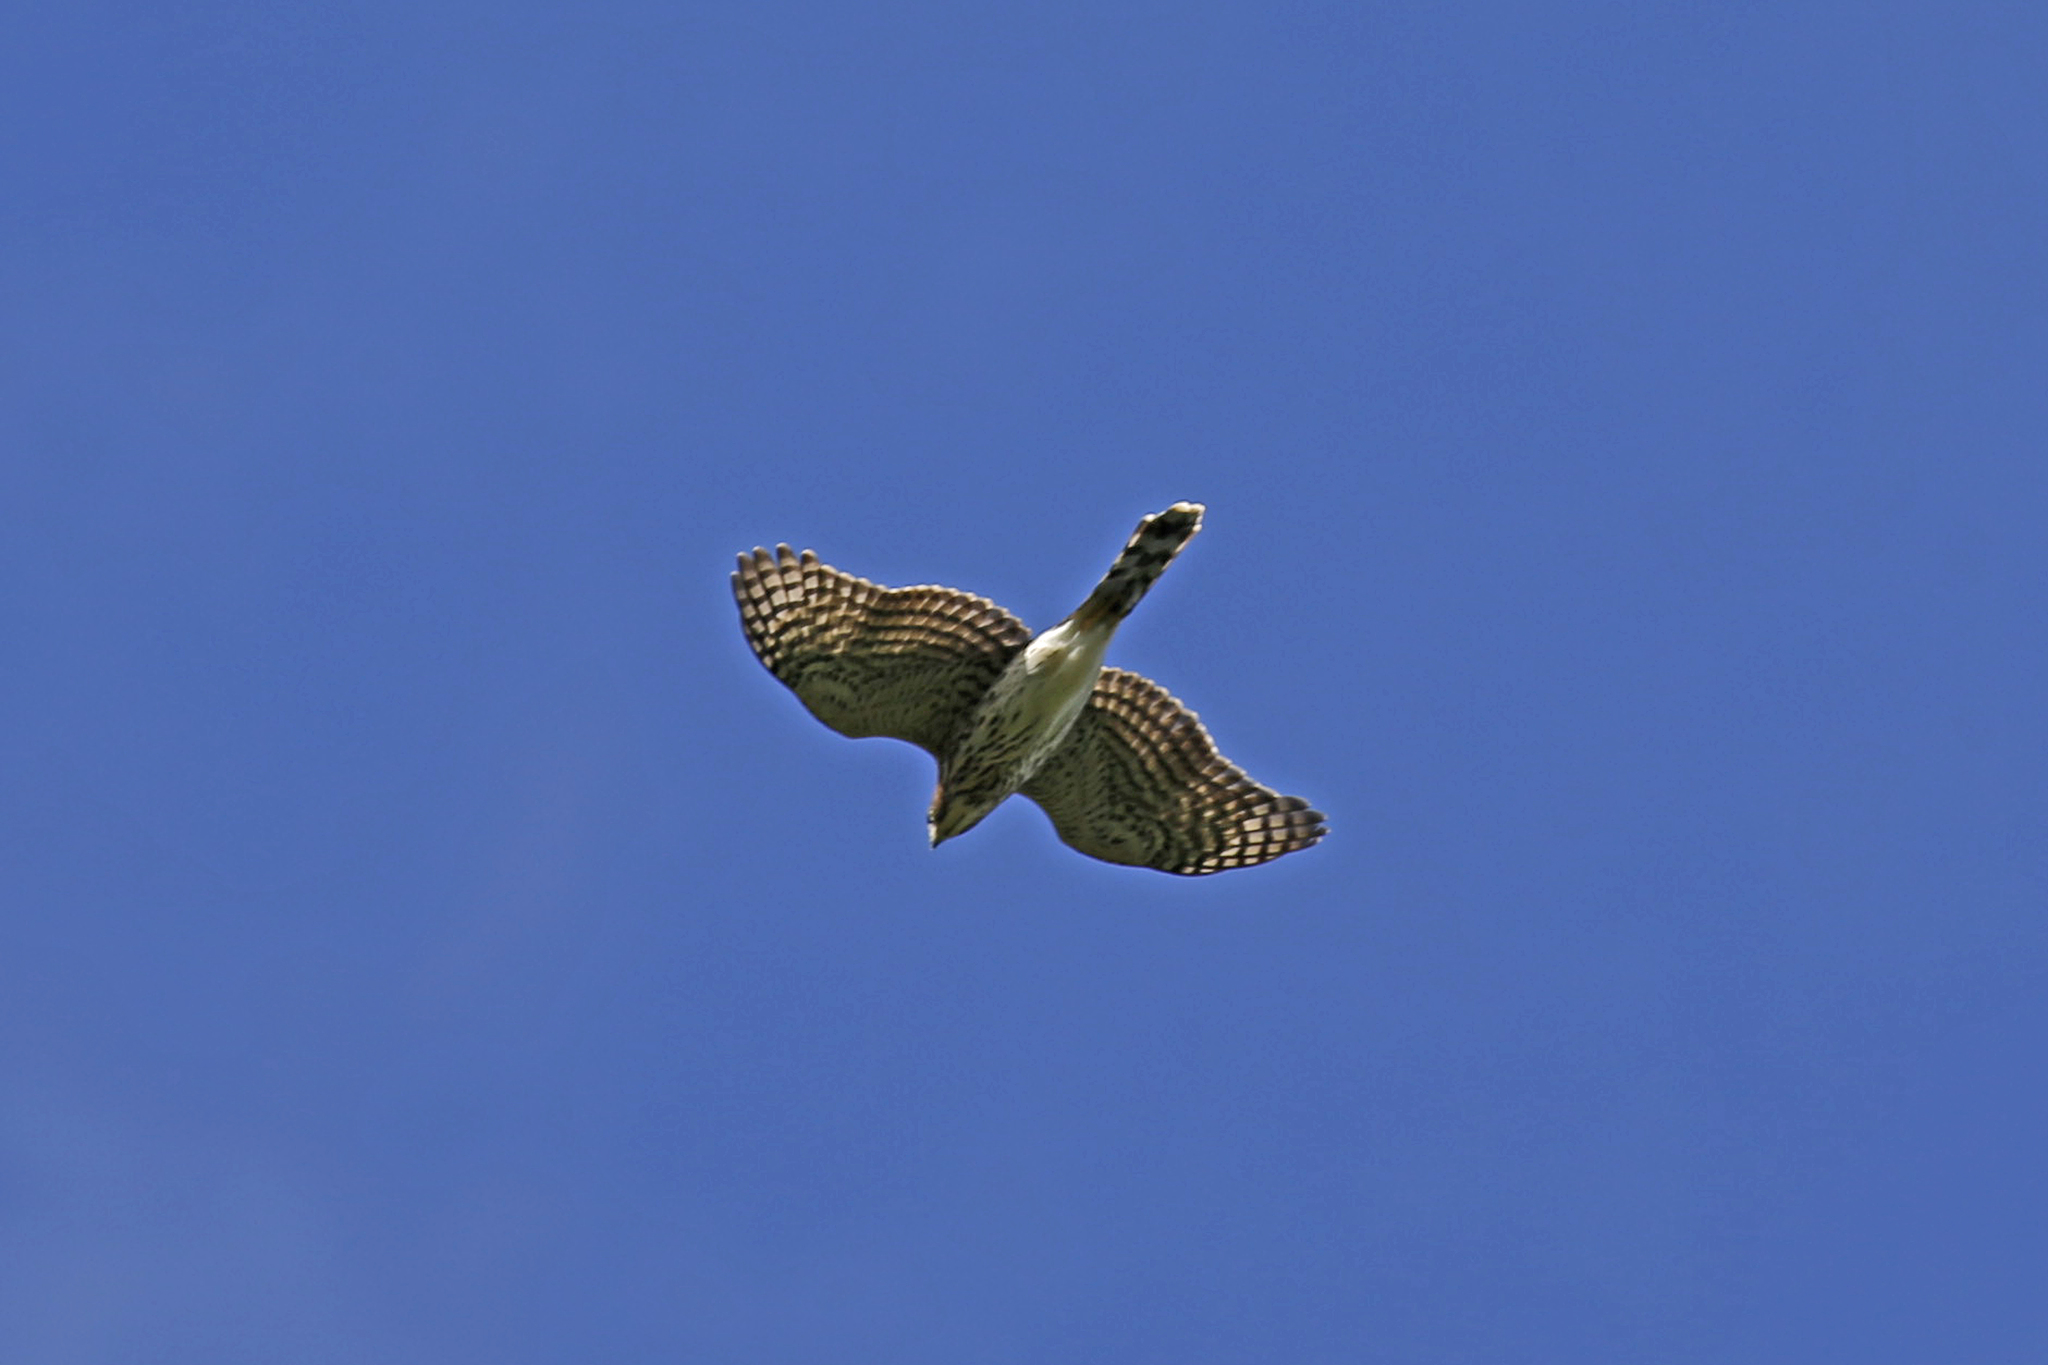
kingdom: Animalia
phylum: Chordata
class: Aves
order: Accipitriformes
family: Accipitridae
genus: Accipiter
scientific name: Accipiter cooperii
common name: Cooper's hawk
